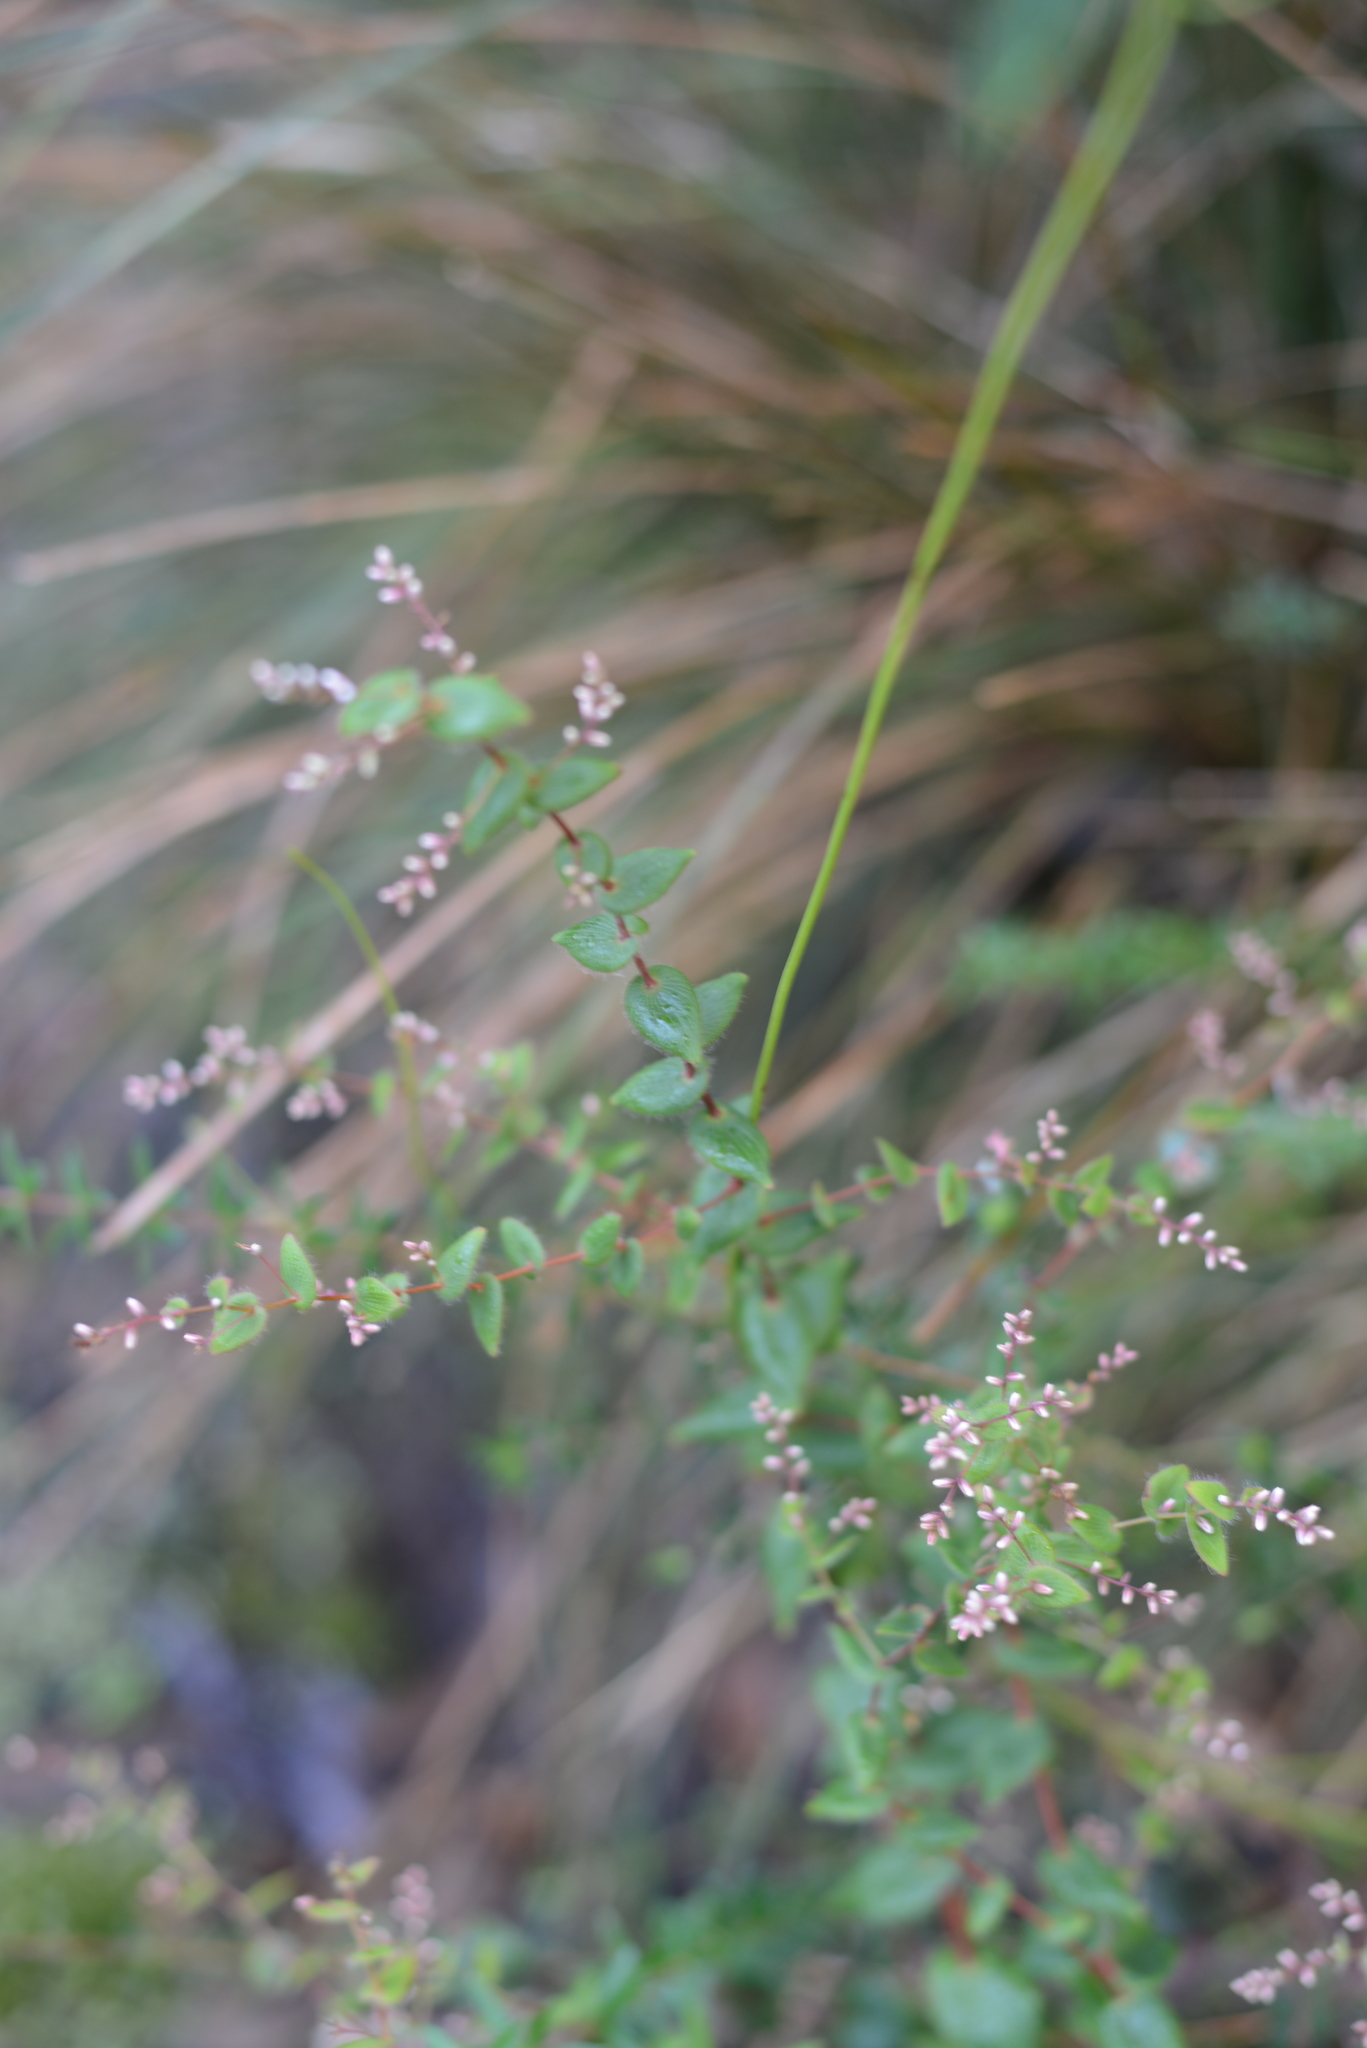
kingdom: Plantae
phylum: Tracheophyta
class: Magnoliopsida
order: Ericales
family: Ericaceae
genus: Leucopogon
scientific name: Leucopogon amplexicaulis
